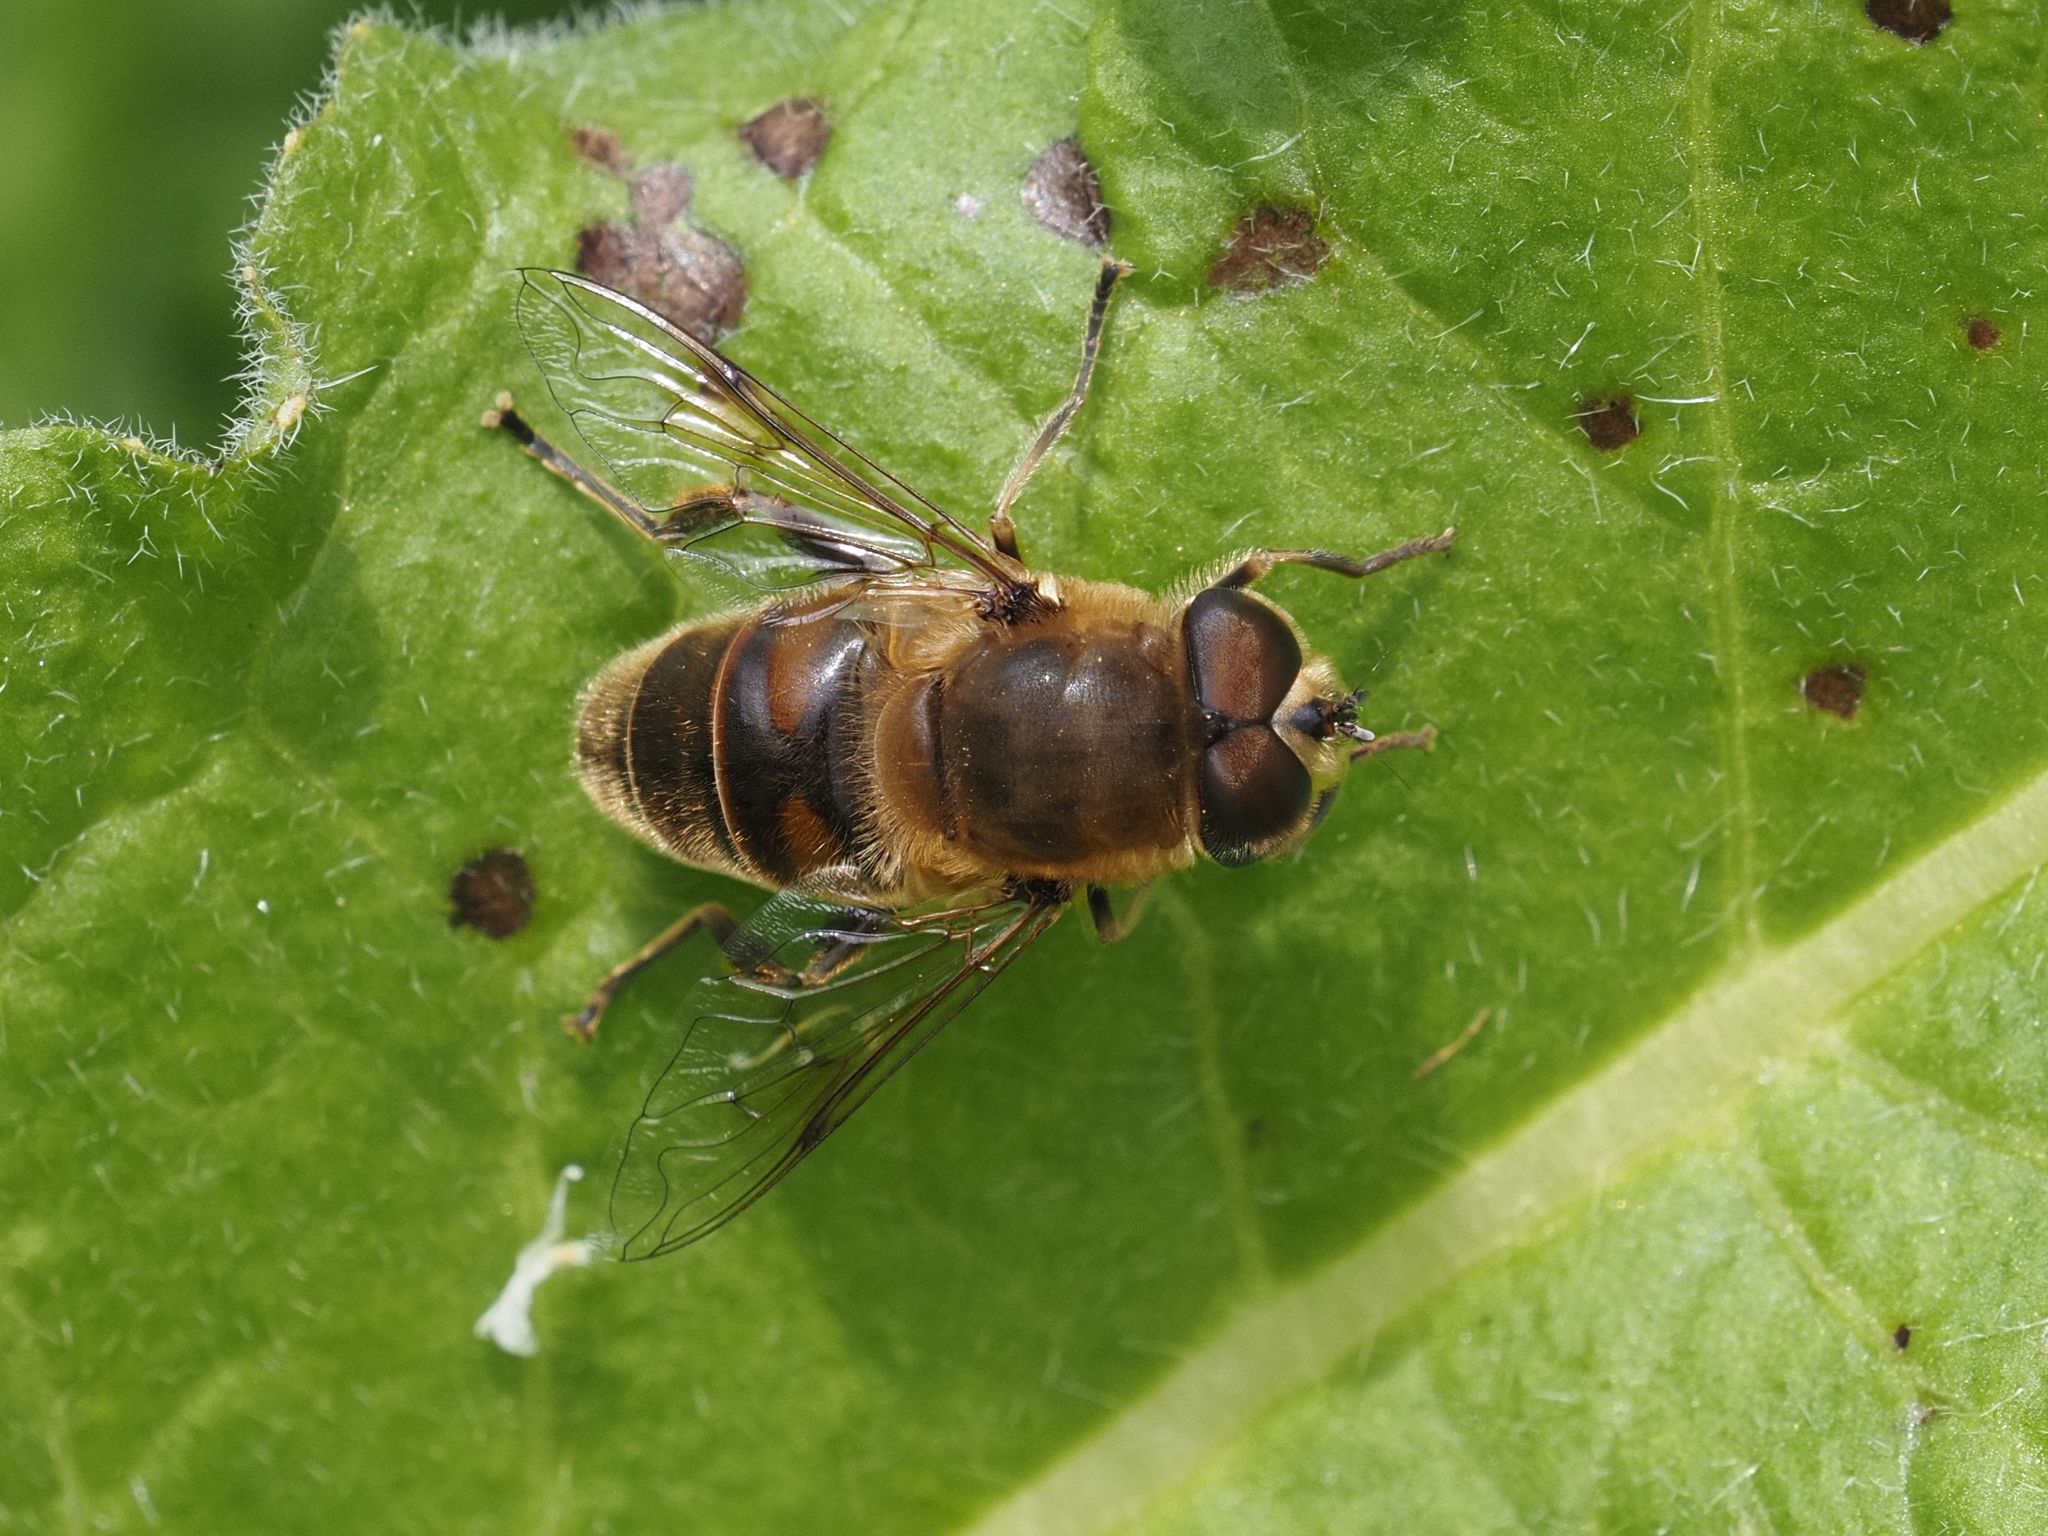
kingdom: Animalia
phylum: Arthropoda
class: Insecta
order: Diptera
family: Syrphidae
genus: Eristalis
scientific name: Eristalis tenax
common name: Drone fly
